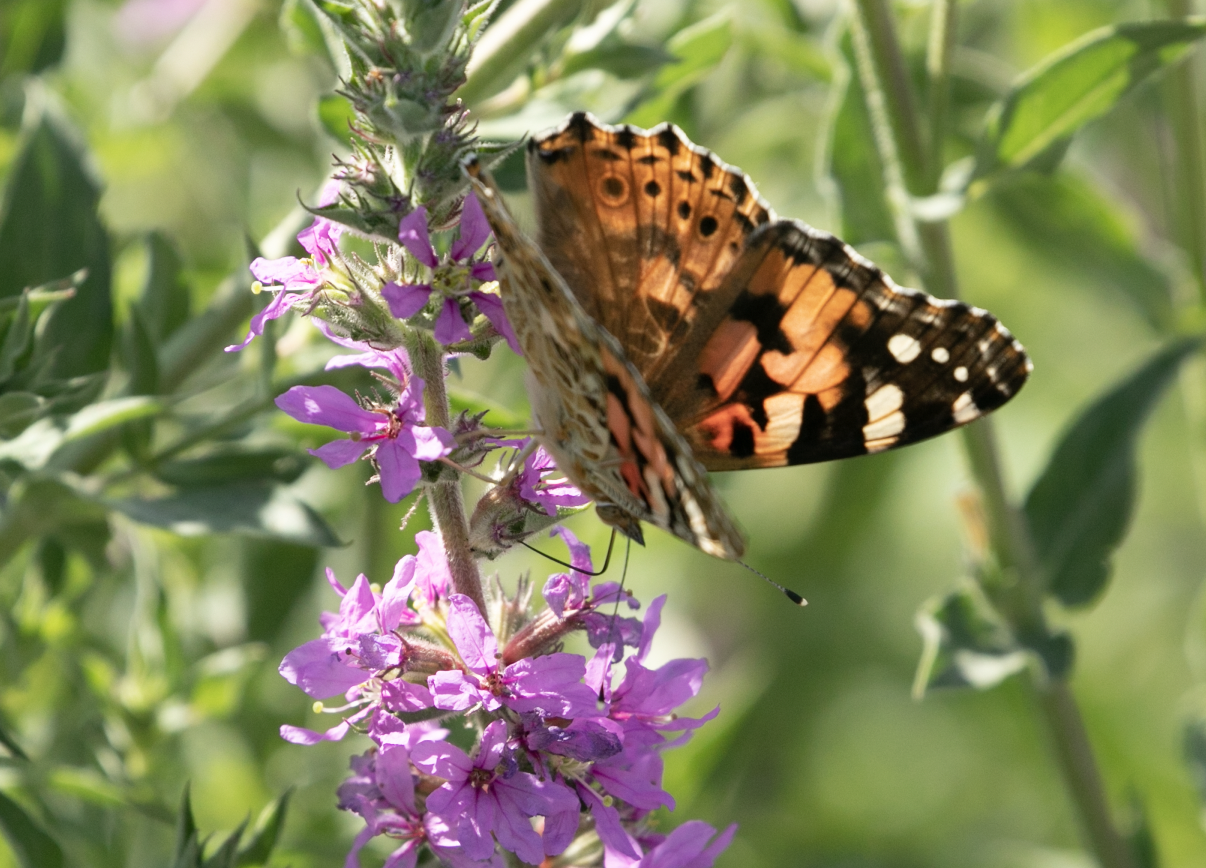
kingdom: Animalia
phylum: Arthropoda
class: Insecta
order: Lepidoptera
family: Nymphalidae
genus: Vanessa
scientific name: Vanessa cardui
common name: Painted lady
